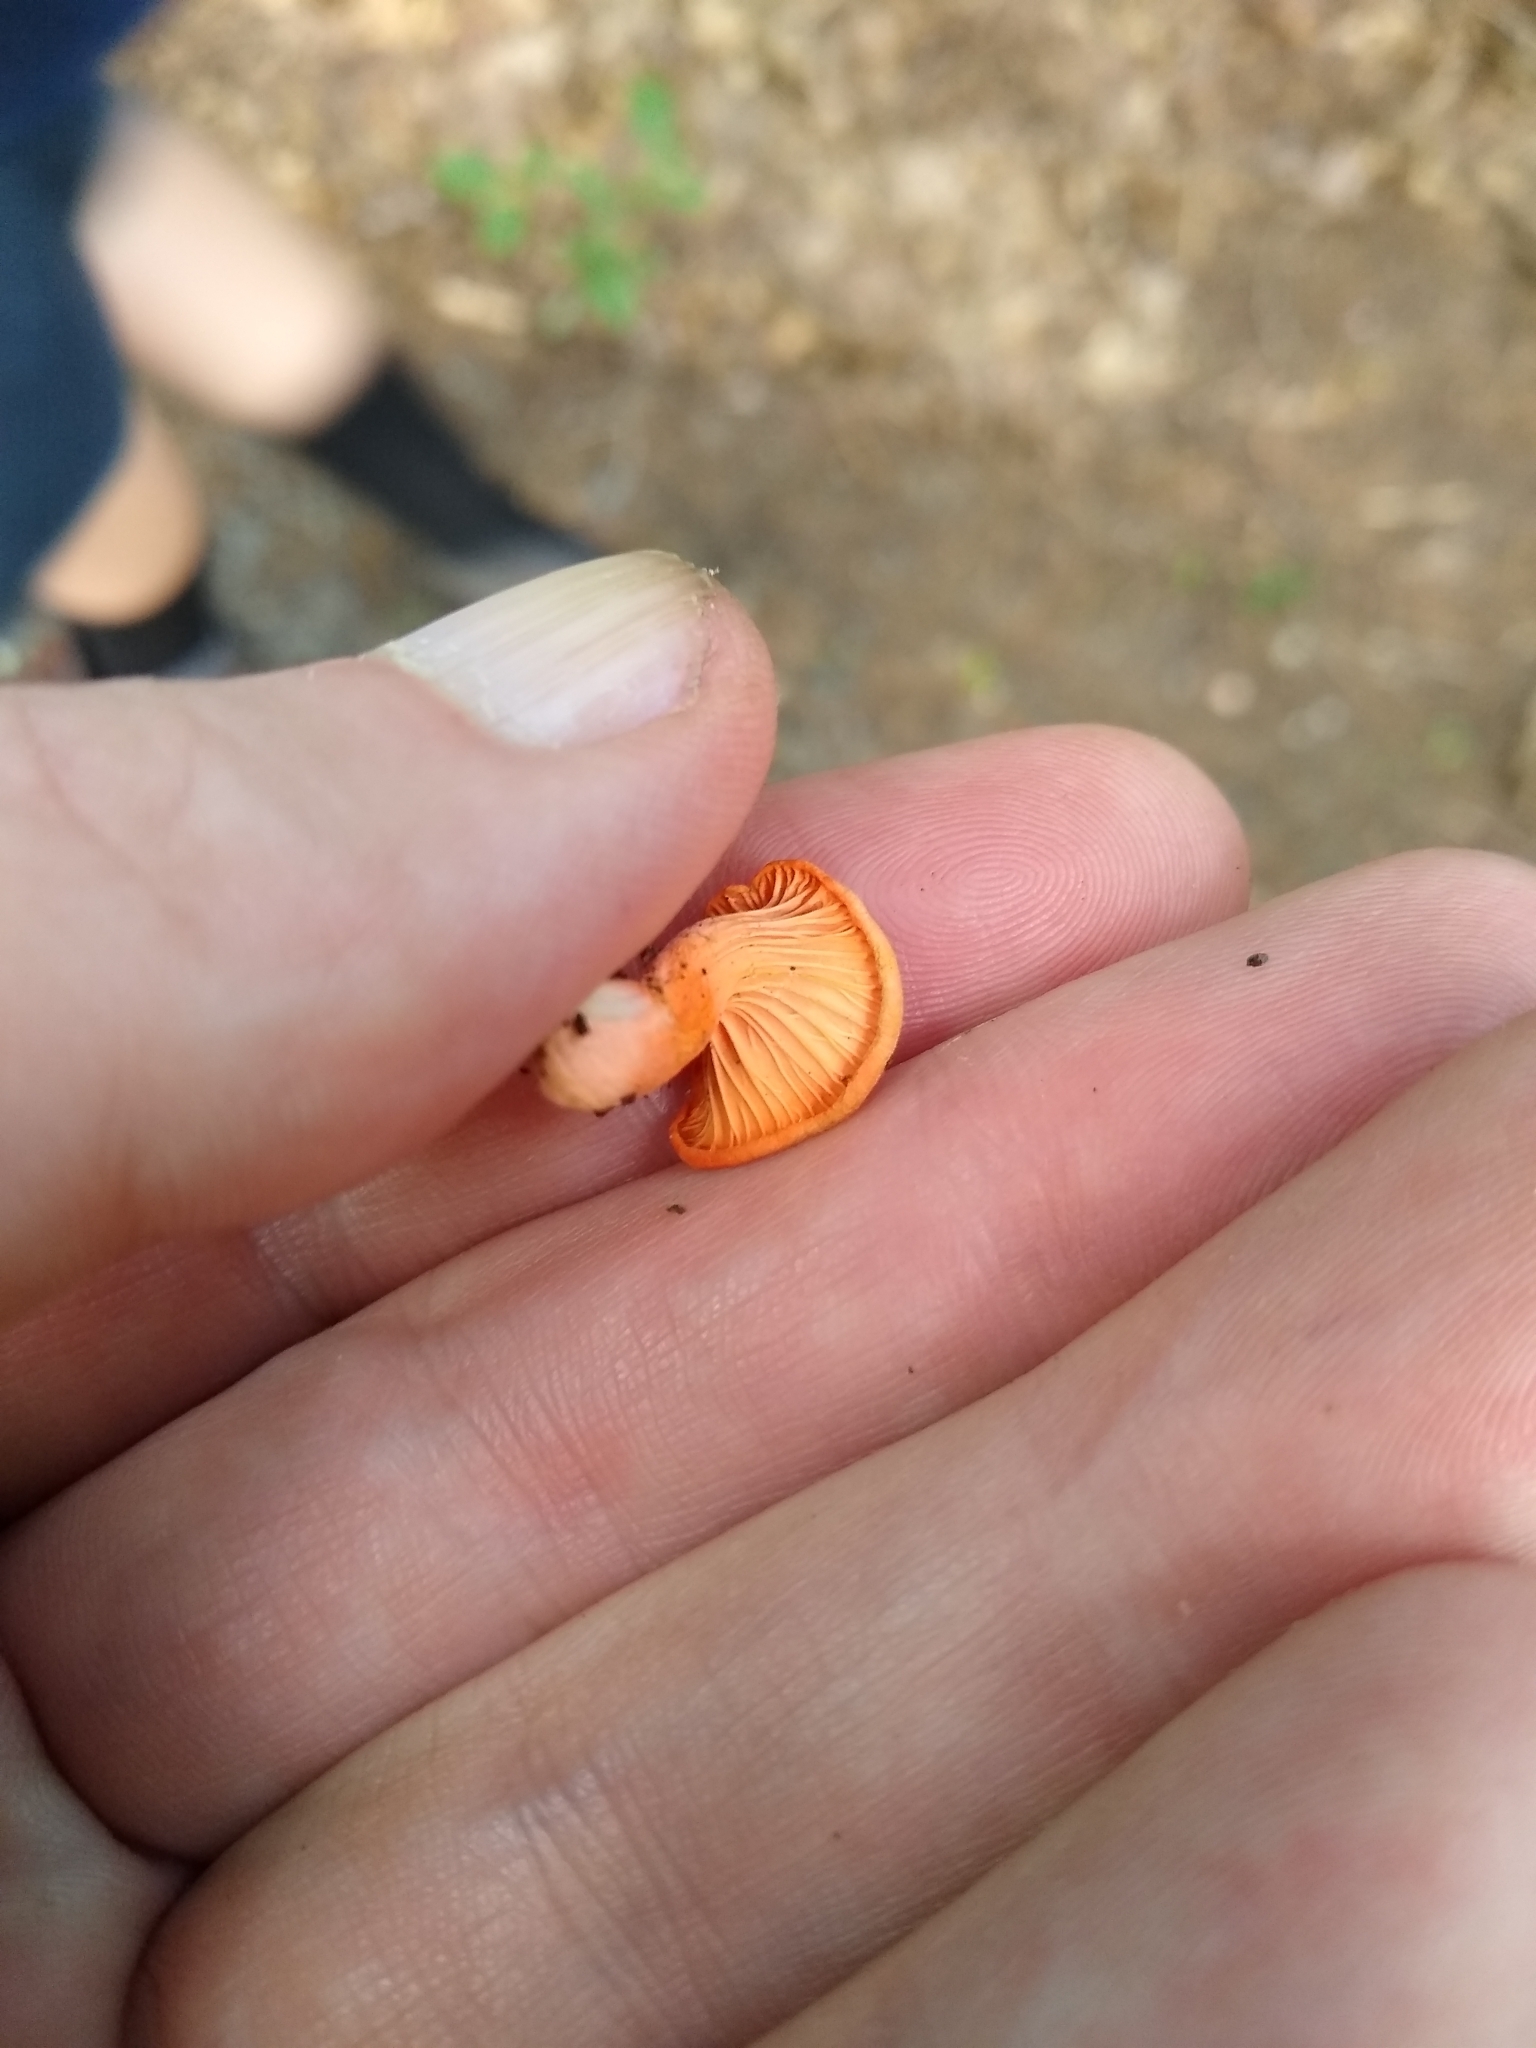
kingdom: Fungi
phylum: Basidiomycota
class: Agaricomycetes
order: Cantharellales
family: Hydnaceae
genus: Cantharellus
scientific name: Cantharellus cinnabarinus
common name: Cinnabar chanterelle
